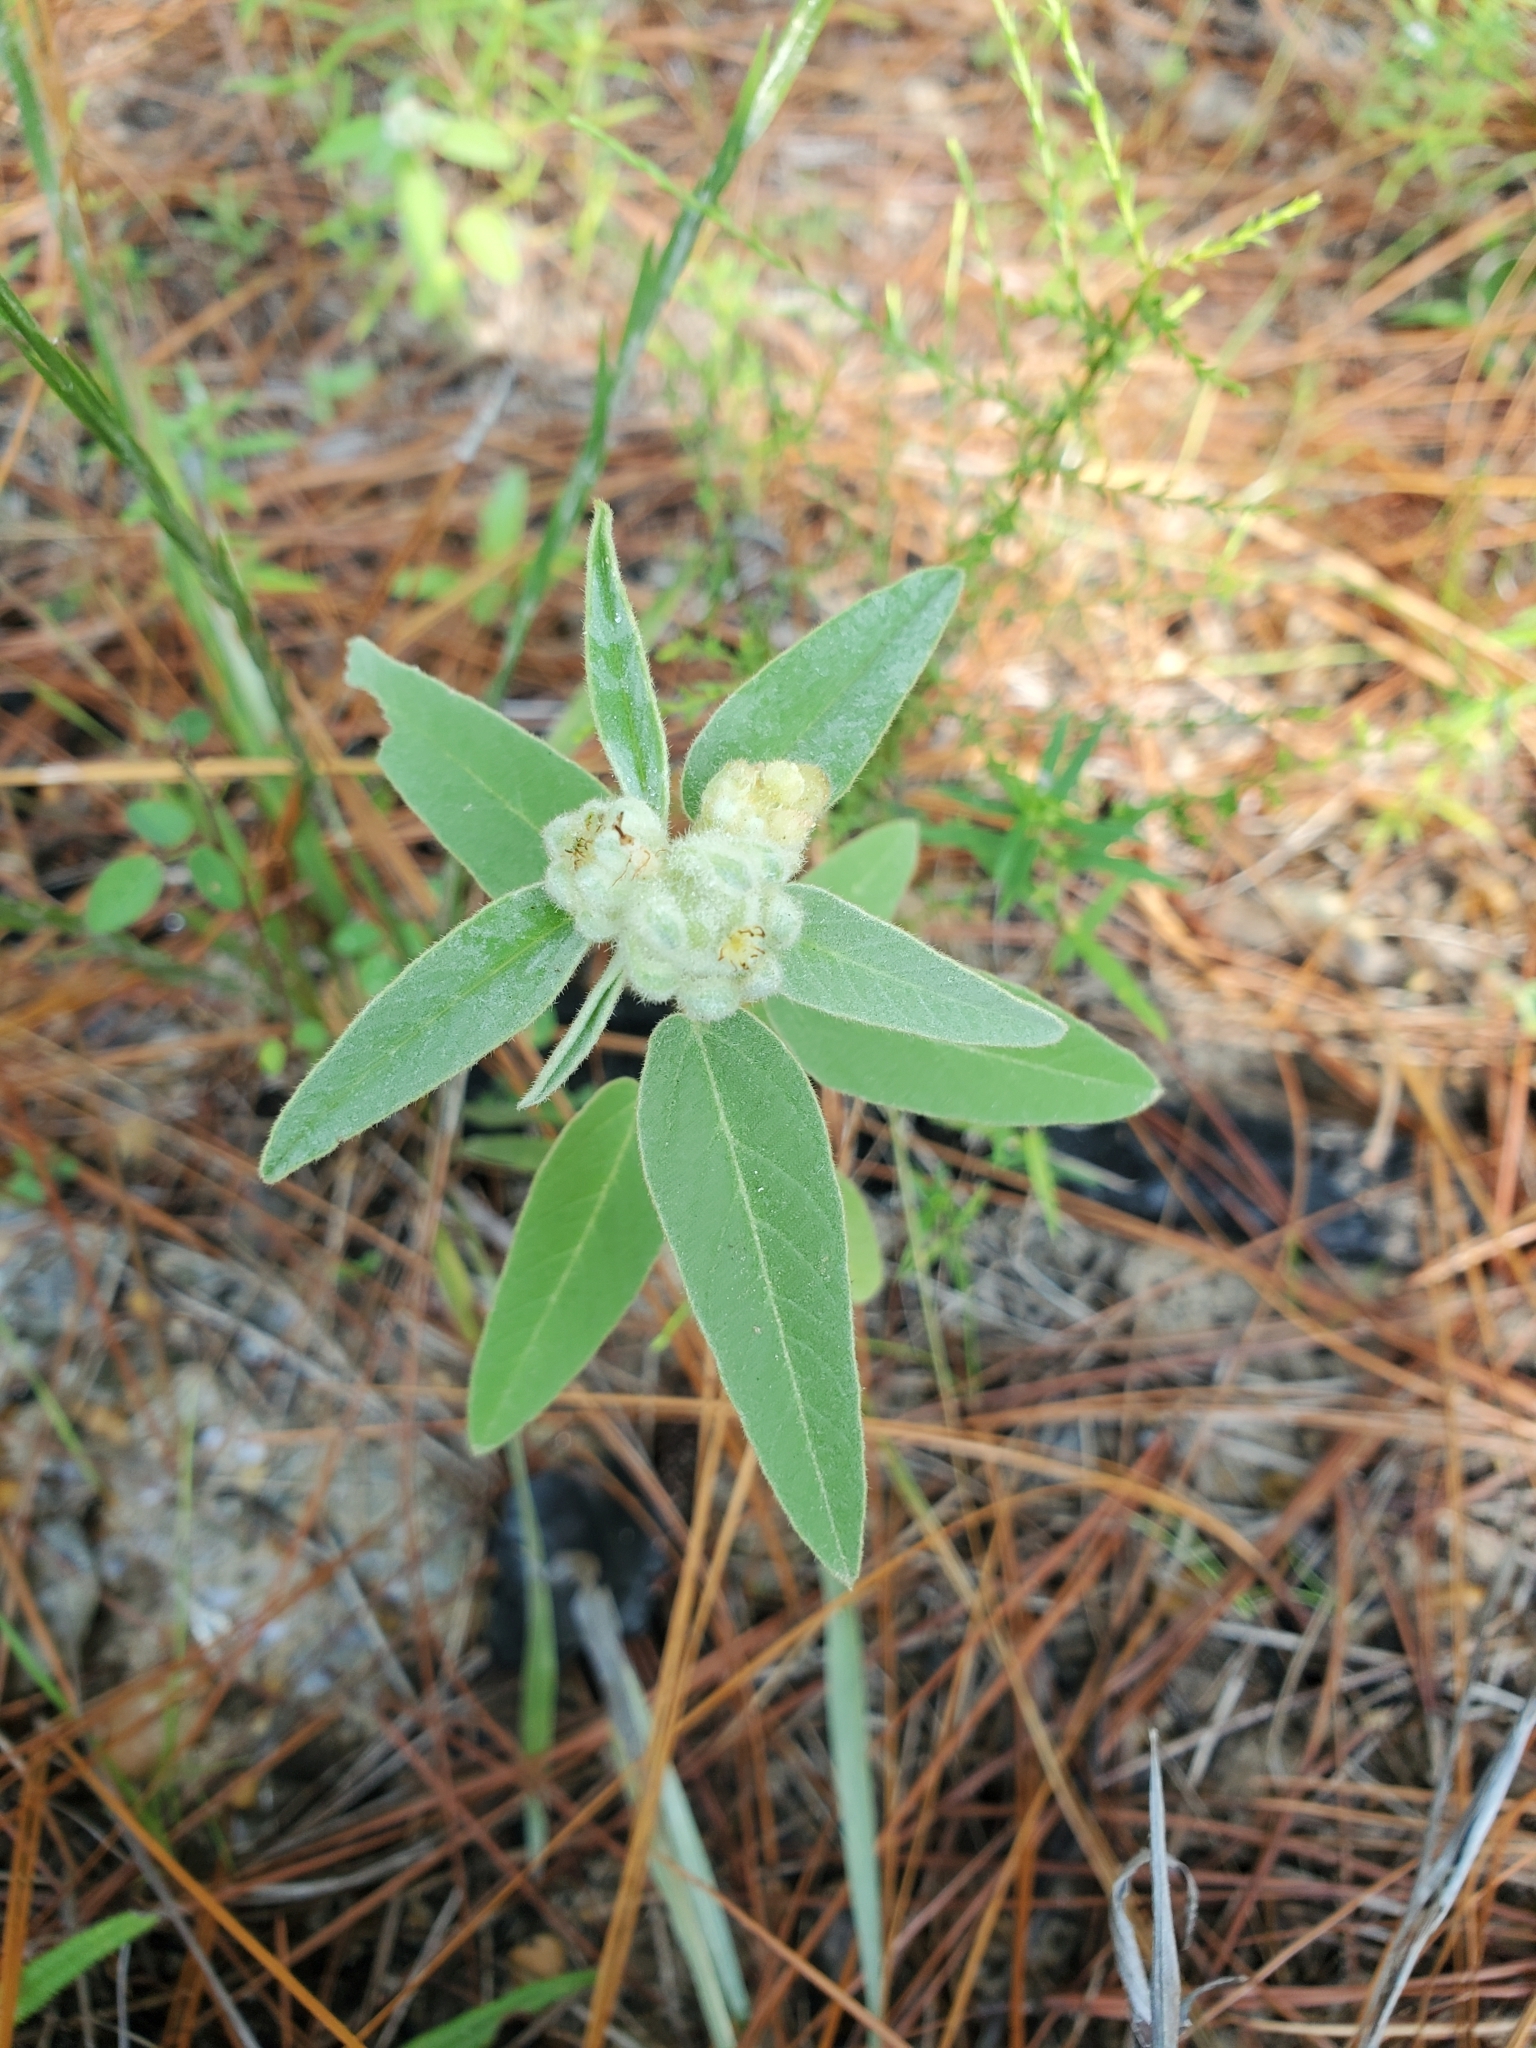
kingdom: Plantae
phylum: Tracheophyta
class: Magnoliopsida
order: Malpighiales
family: Euphorbiaceae
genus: Croton
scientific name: Croton lindheimeri
